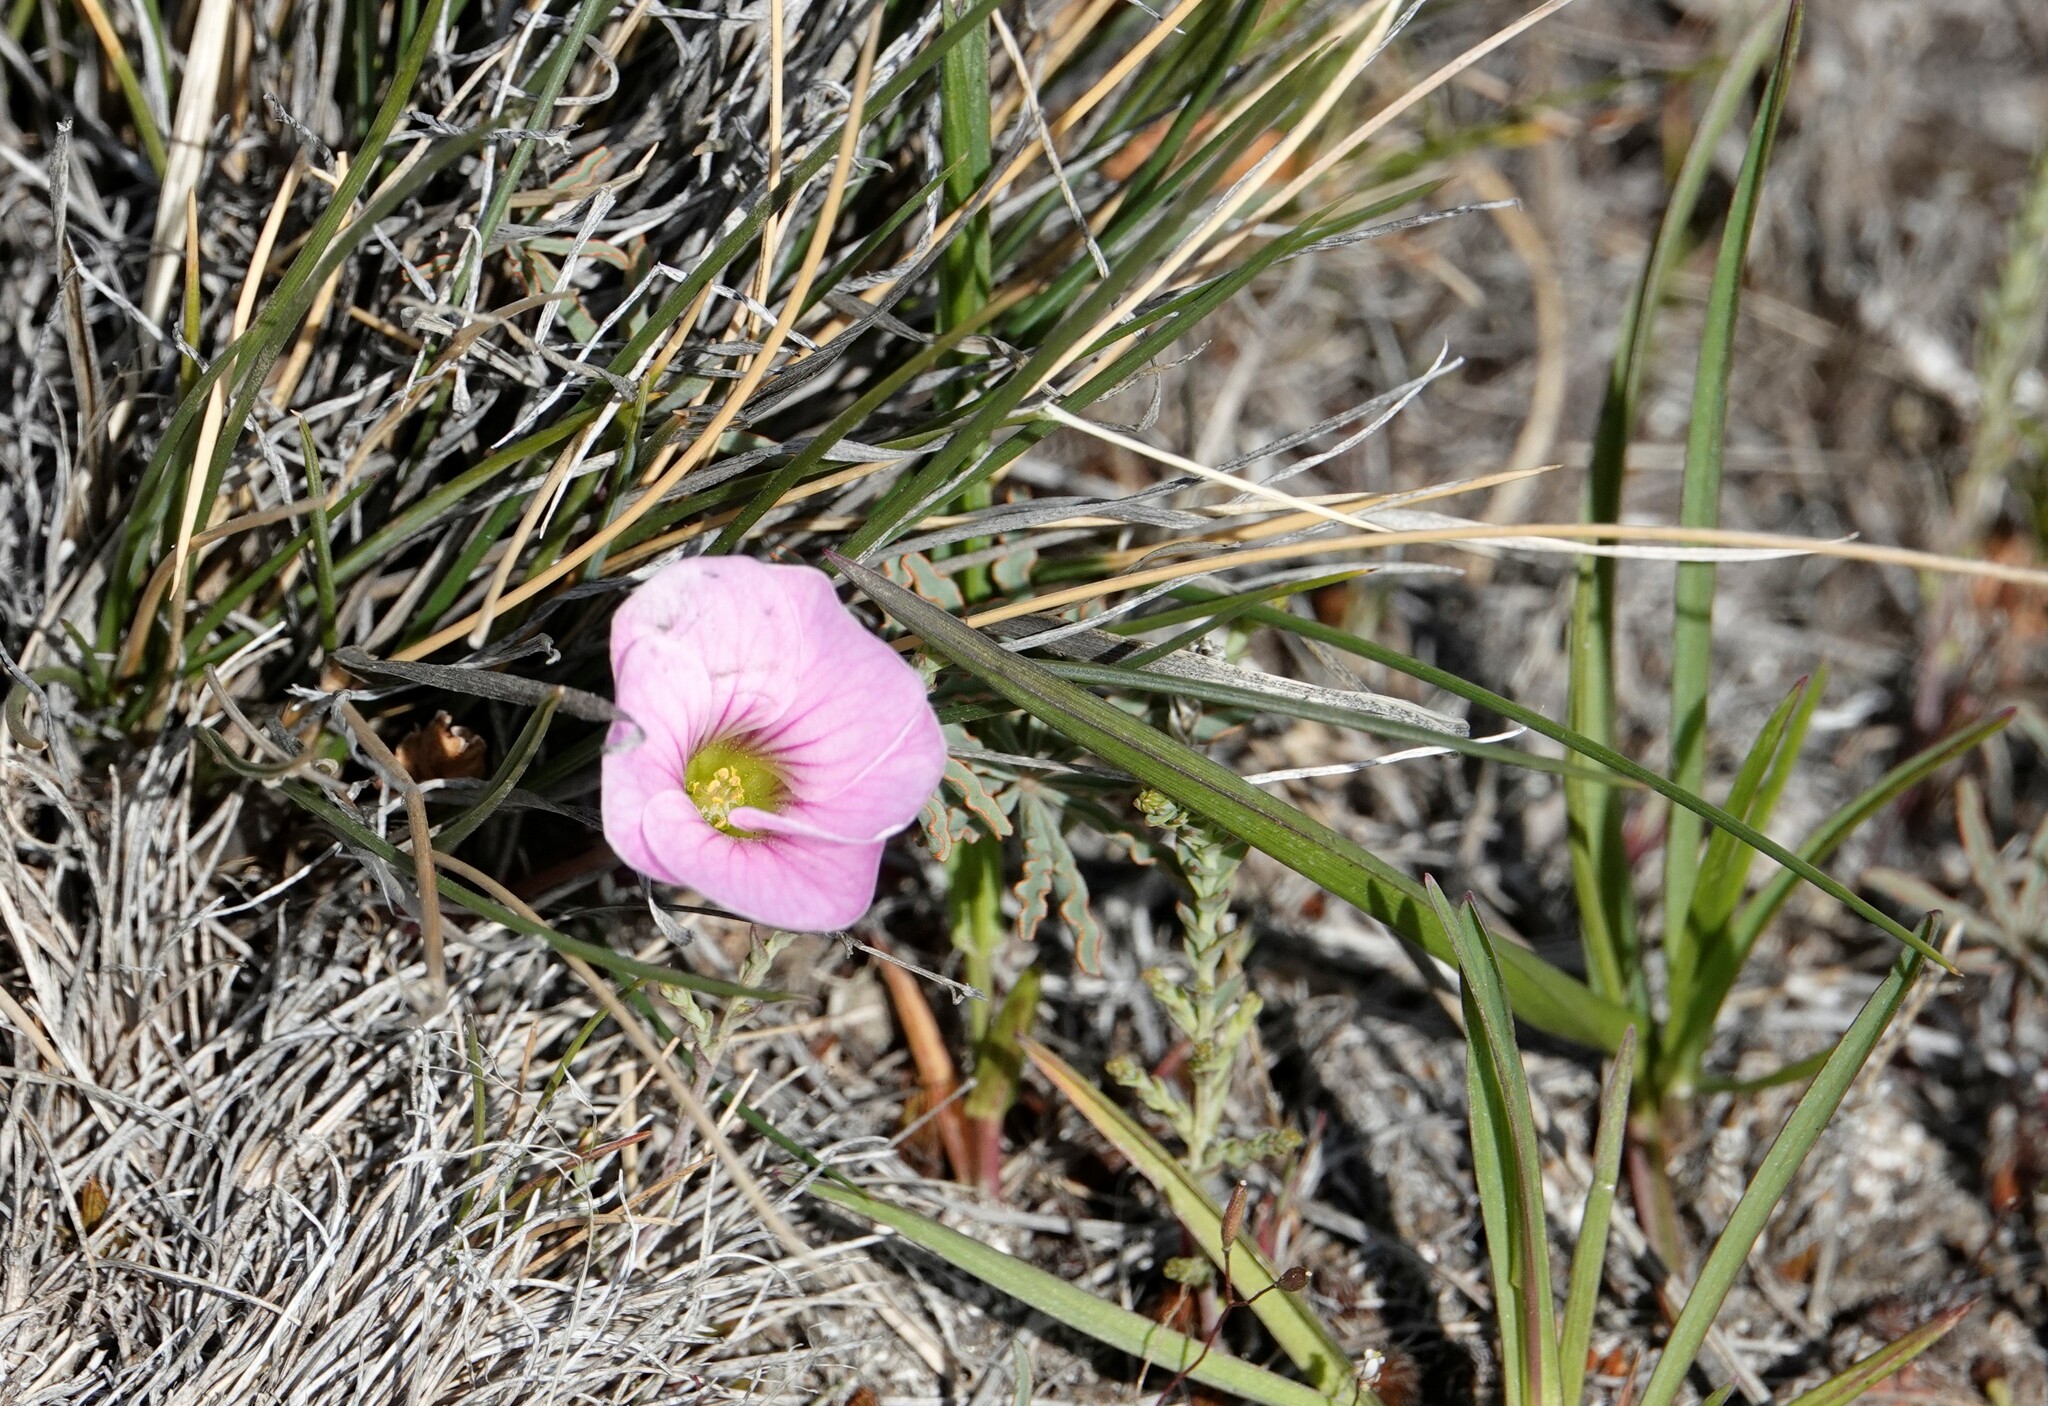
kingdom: Plantae
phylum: Tracheophyta
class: Magnoliopsida
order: Oxalidales
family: Oxalidaceae
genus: Oxalis
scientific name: Oxalis laciniata
